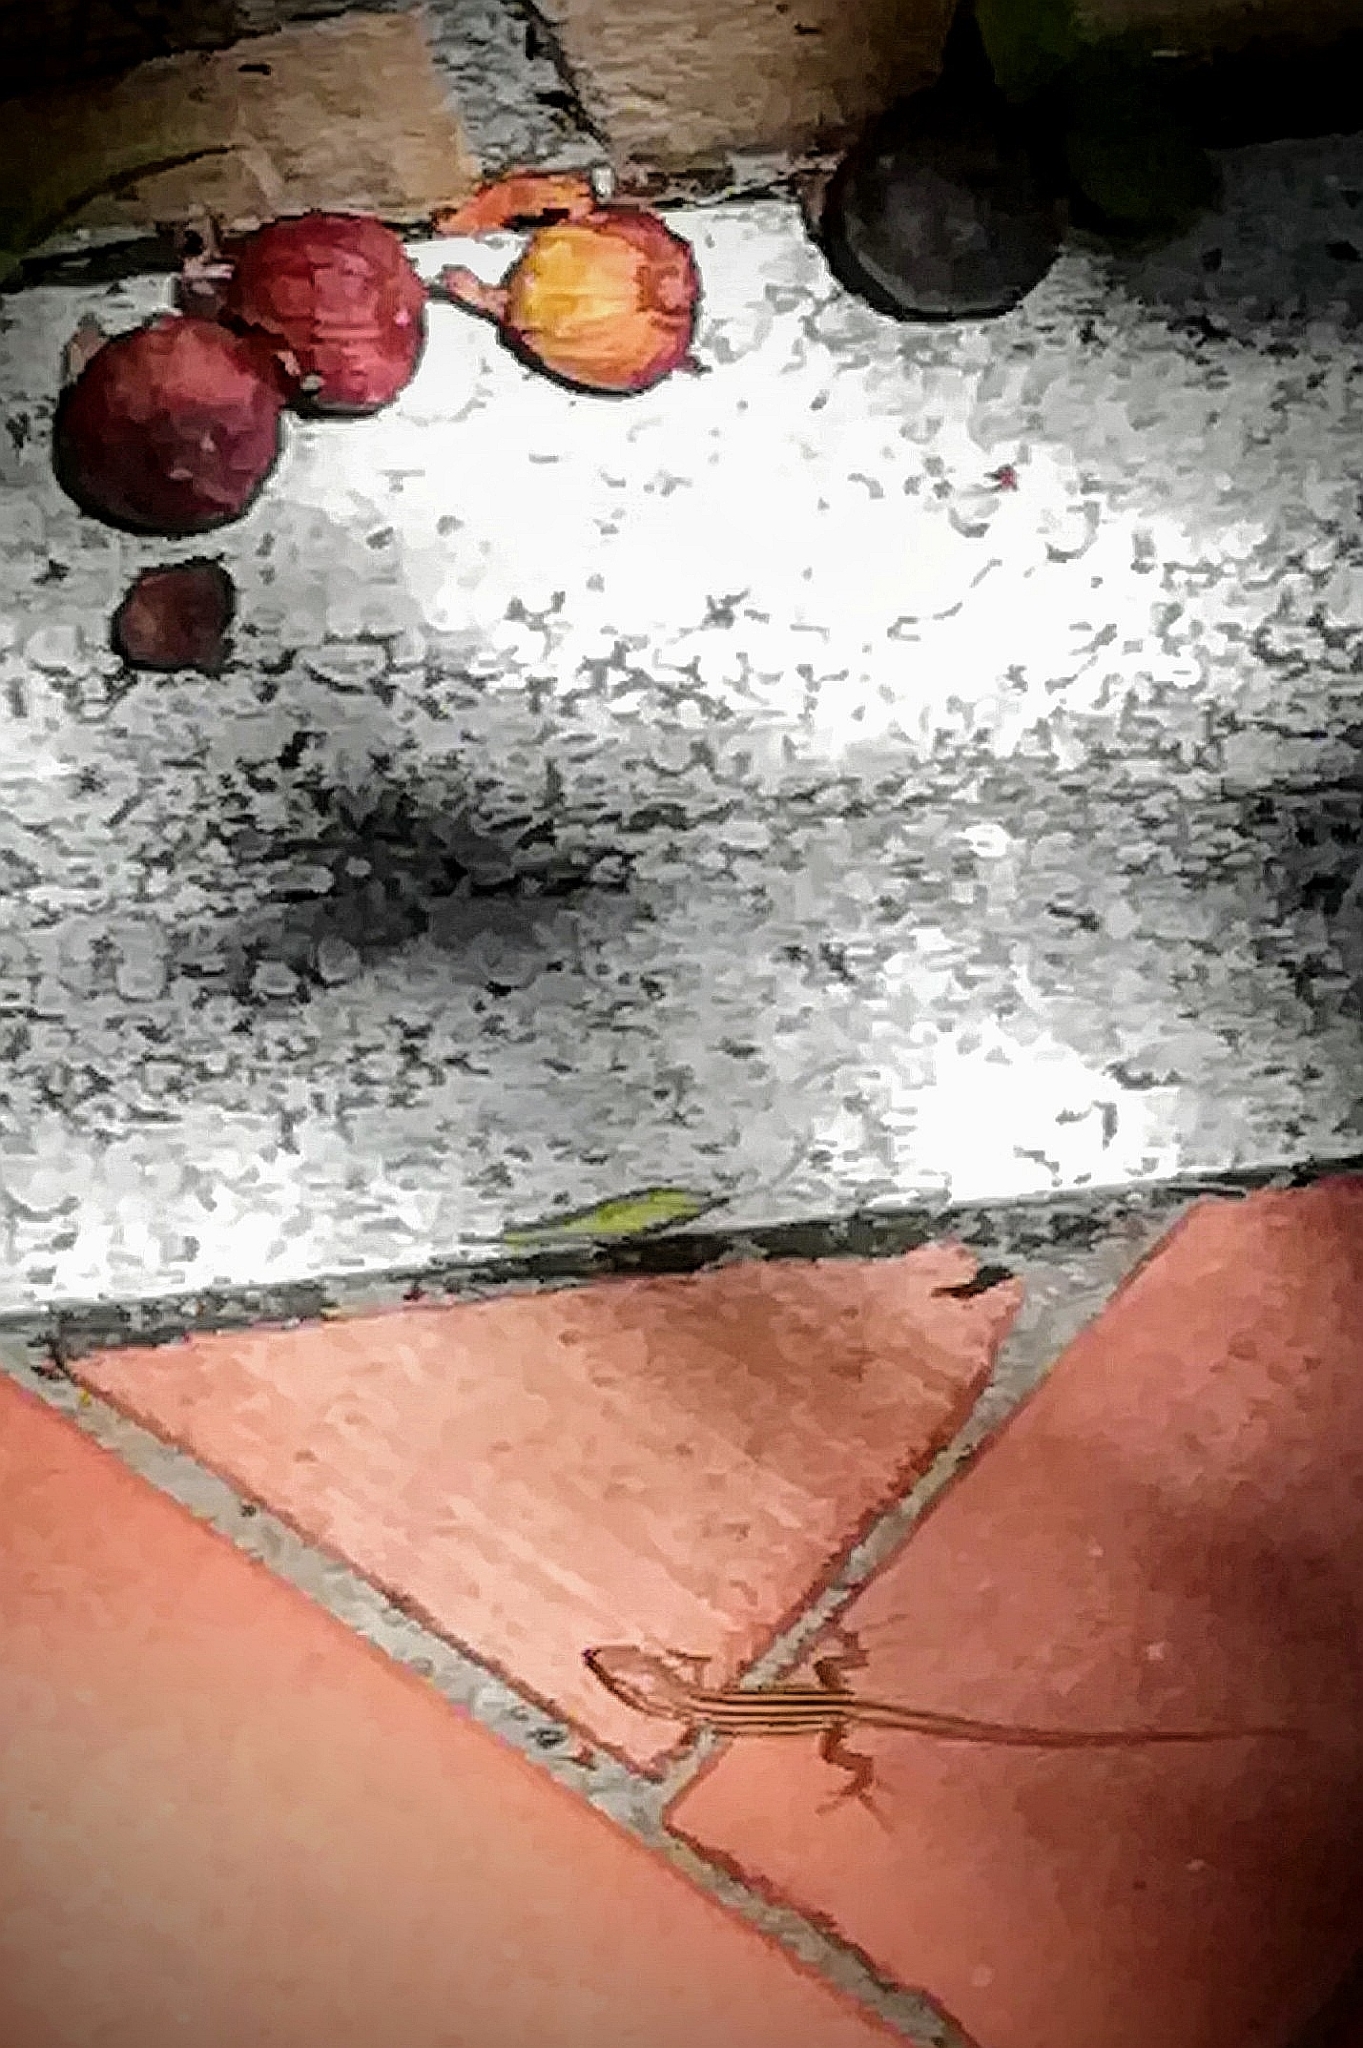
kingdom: Animalia
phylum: Chordata
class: Squamata
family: Lacertidae
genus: Podarcis
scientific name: Podarcis siculus
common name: Italian wall lizard
